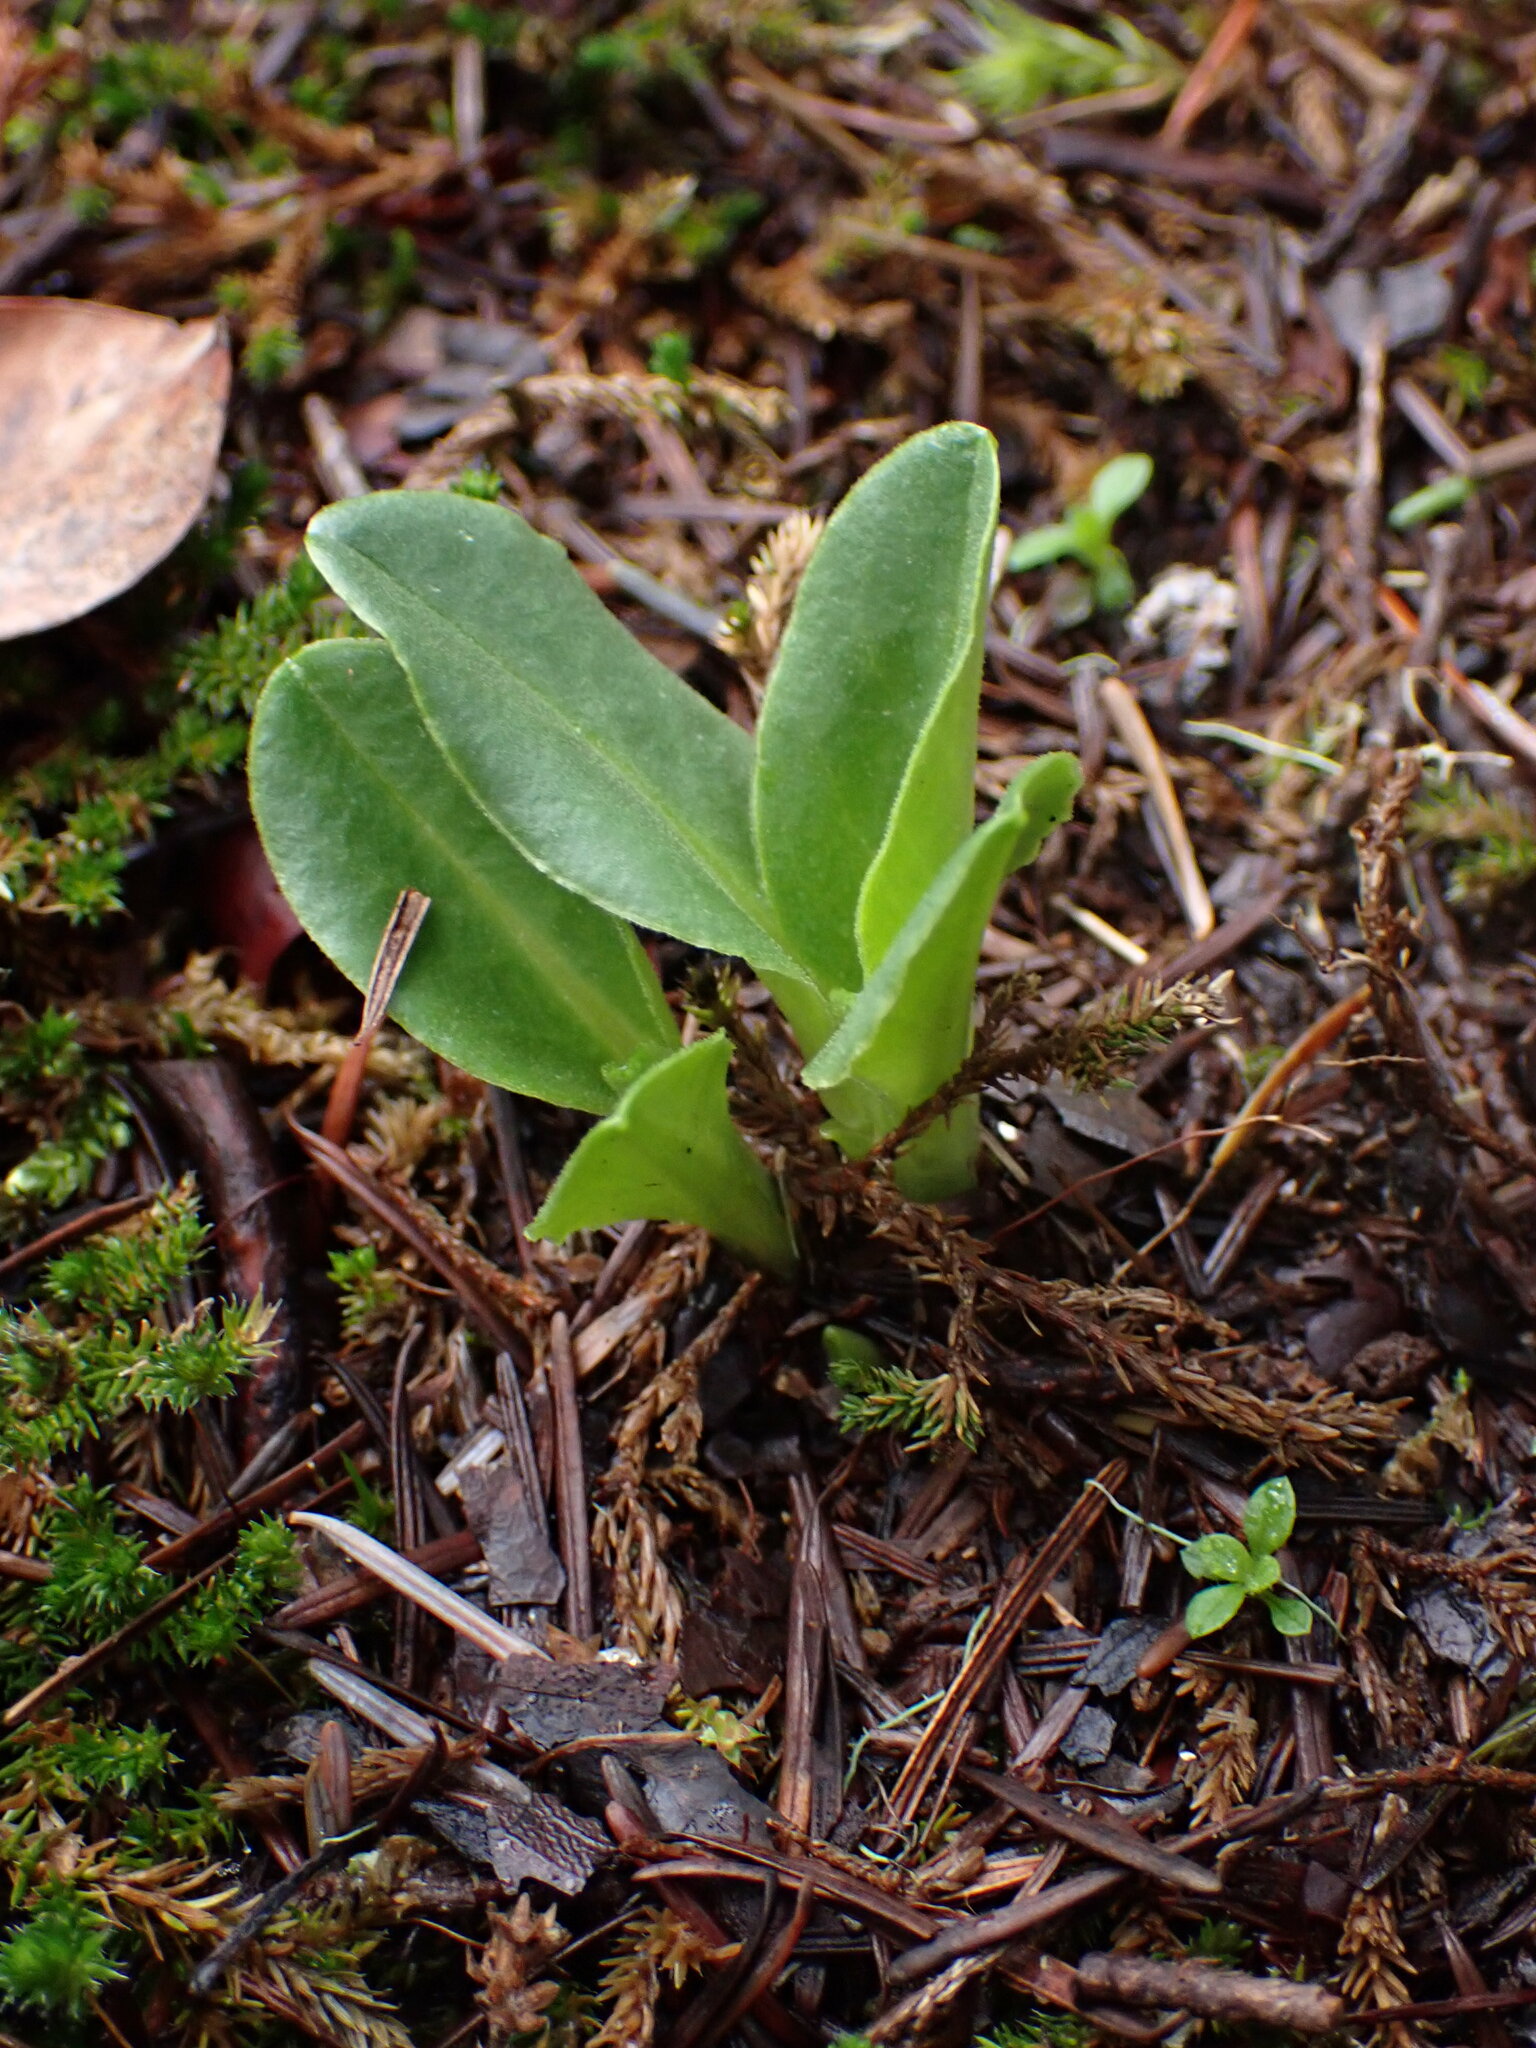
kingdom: Plantae
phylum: Tracheophyta
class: Magnoliopsida
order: Ericales
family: Primulaceae
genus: Dodecatheon
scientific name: Dodecatheon hendersonii
